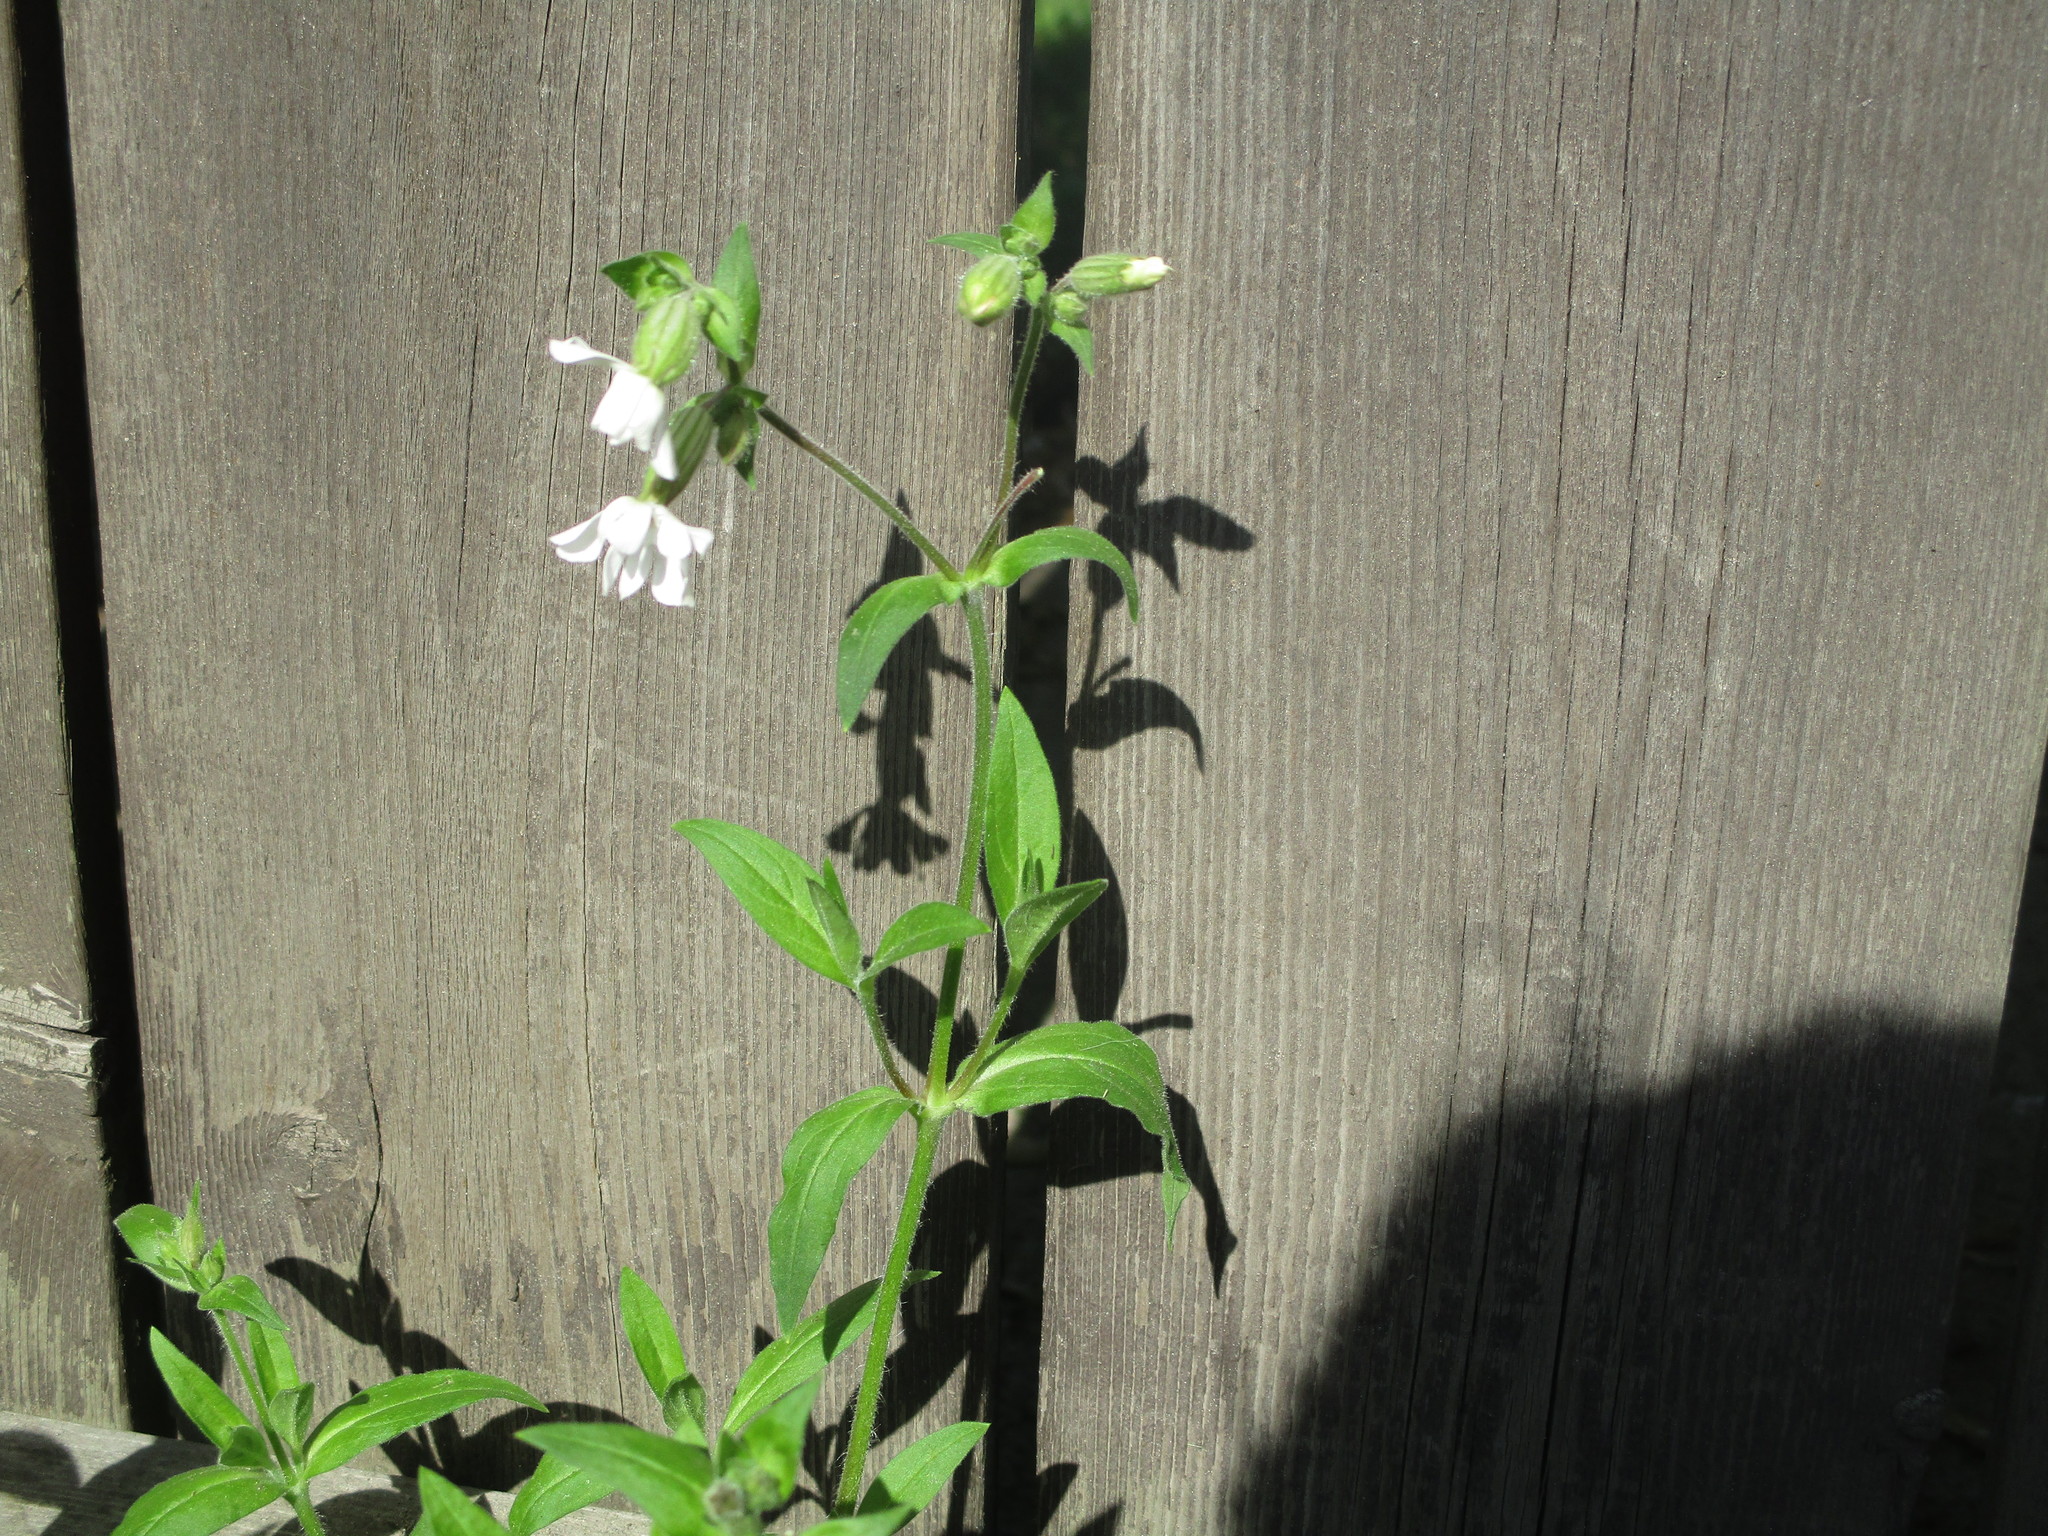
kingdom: Plantae
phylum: Tracheophyta
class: Magnoliopsida
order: Caryophyllales
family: Caryophyllaceae
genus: Silene
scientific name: Silene latifolia
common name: White campion
